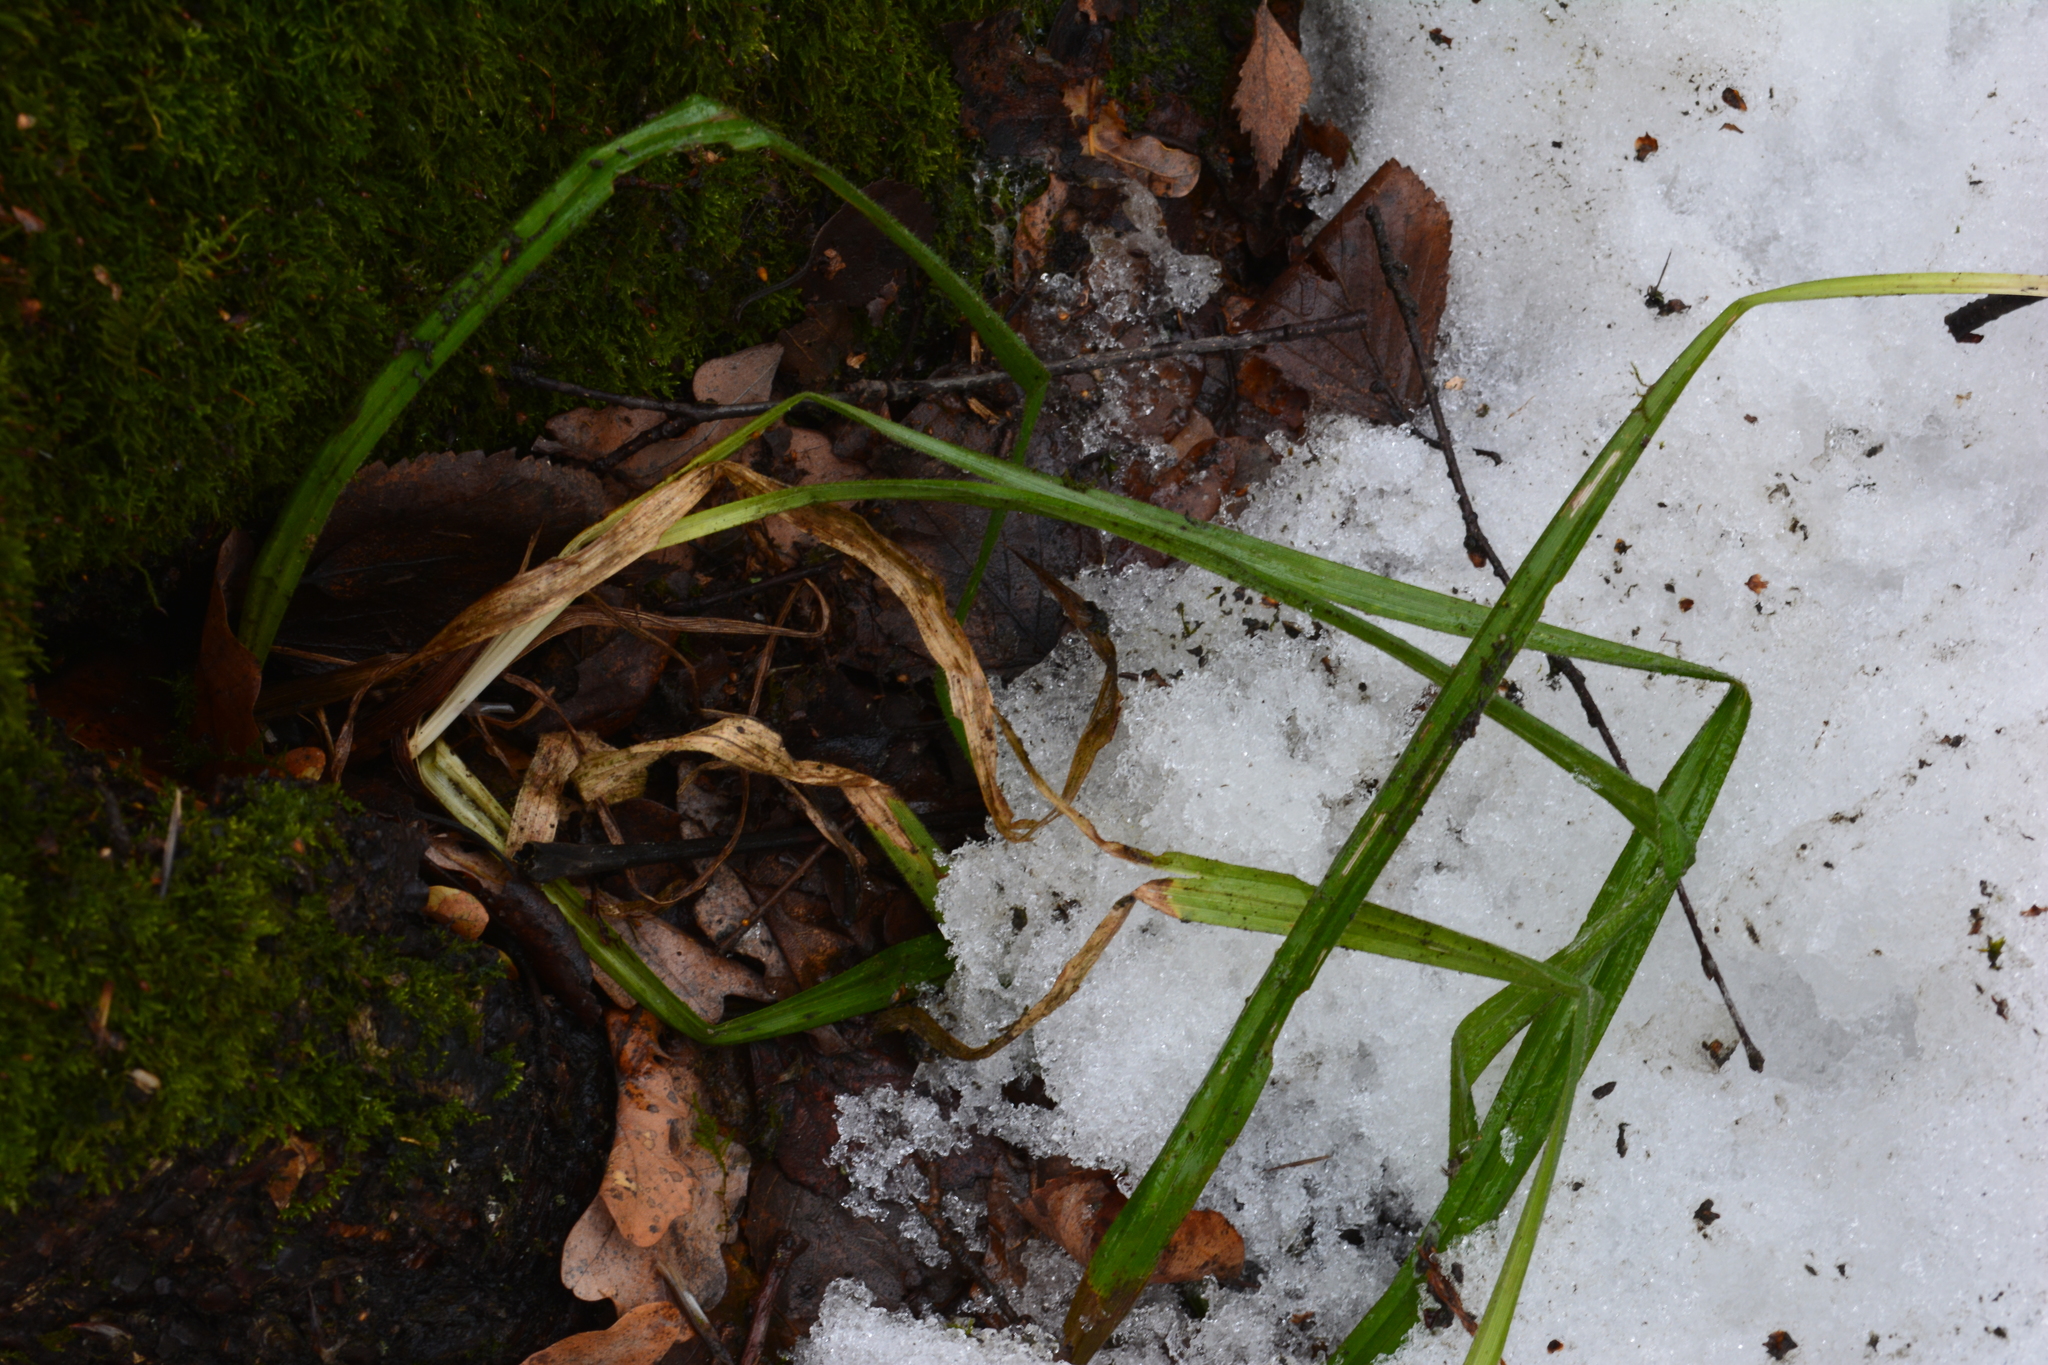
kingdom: Plantae
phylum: Tracheophyta
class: Liliopsida
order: Poales
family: Cyperaceae
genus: Carex
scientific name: Carex sylvatica
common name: Wood-sedge
